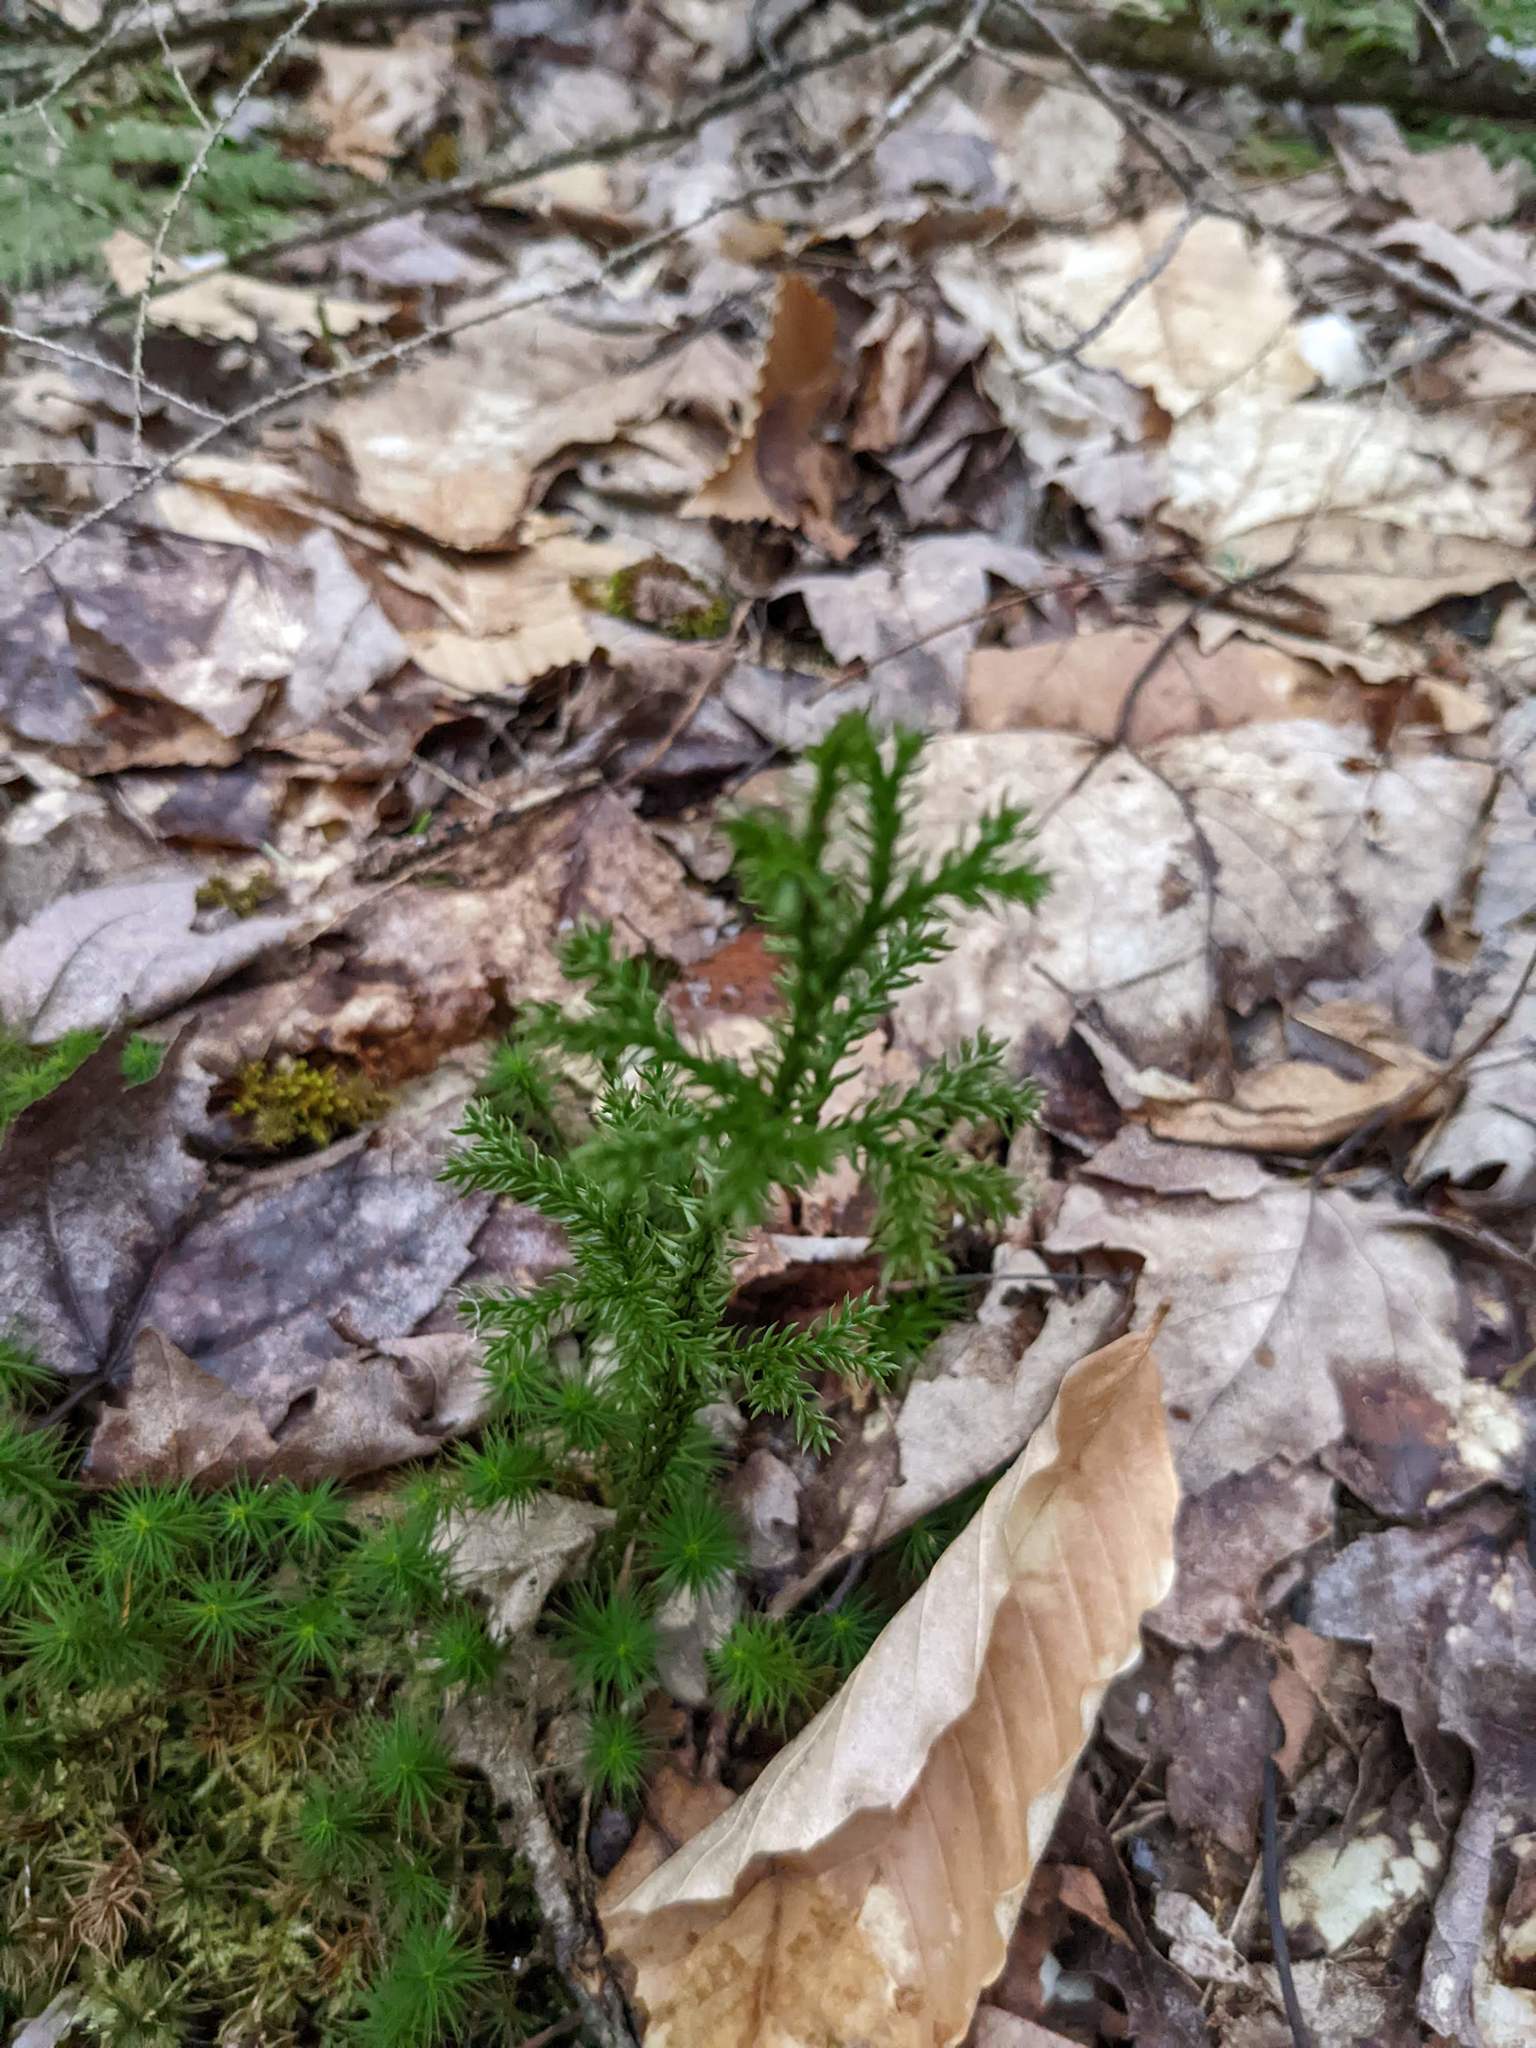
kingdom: Plantae
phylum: Tracheophyta
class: Magnoliopsida
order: Fagales
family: Fagaceae
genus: Fagus
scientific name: Fagus grandifolia
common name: American beech
